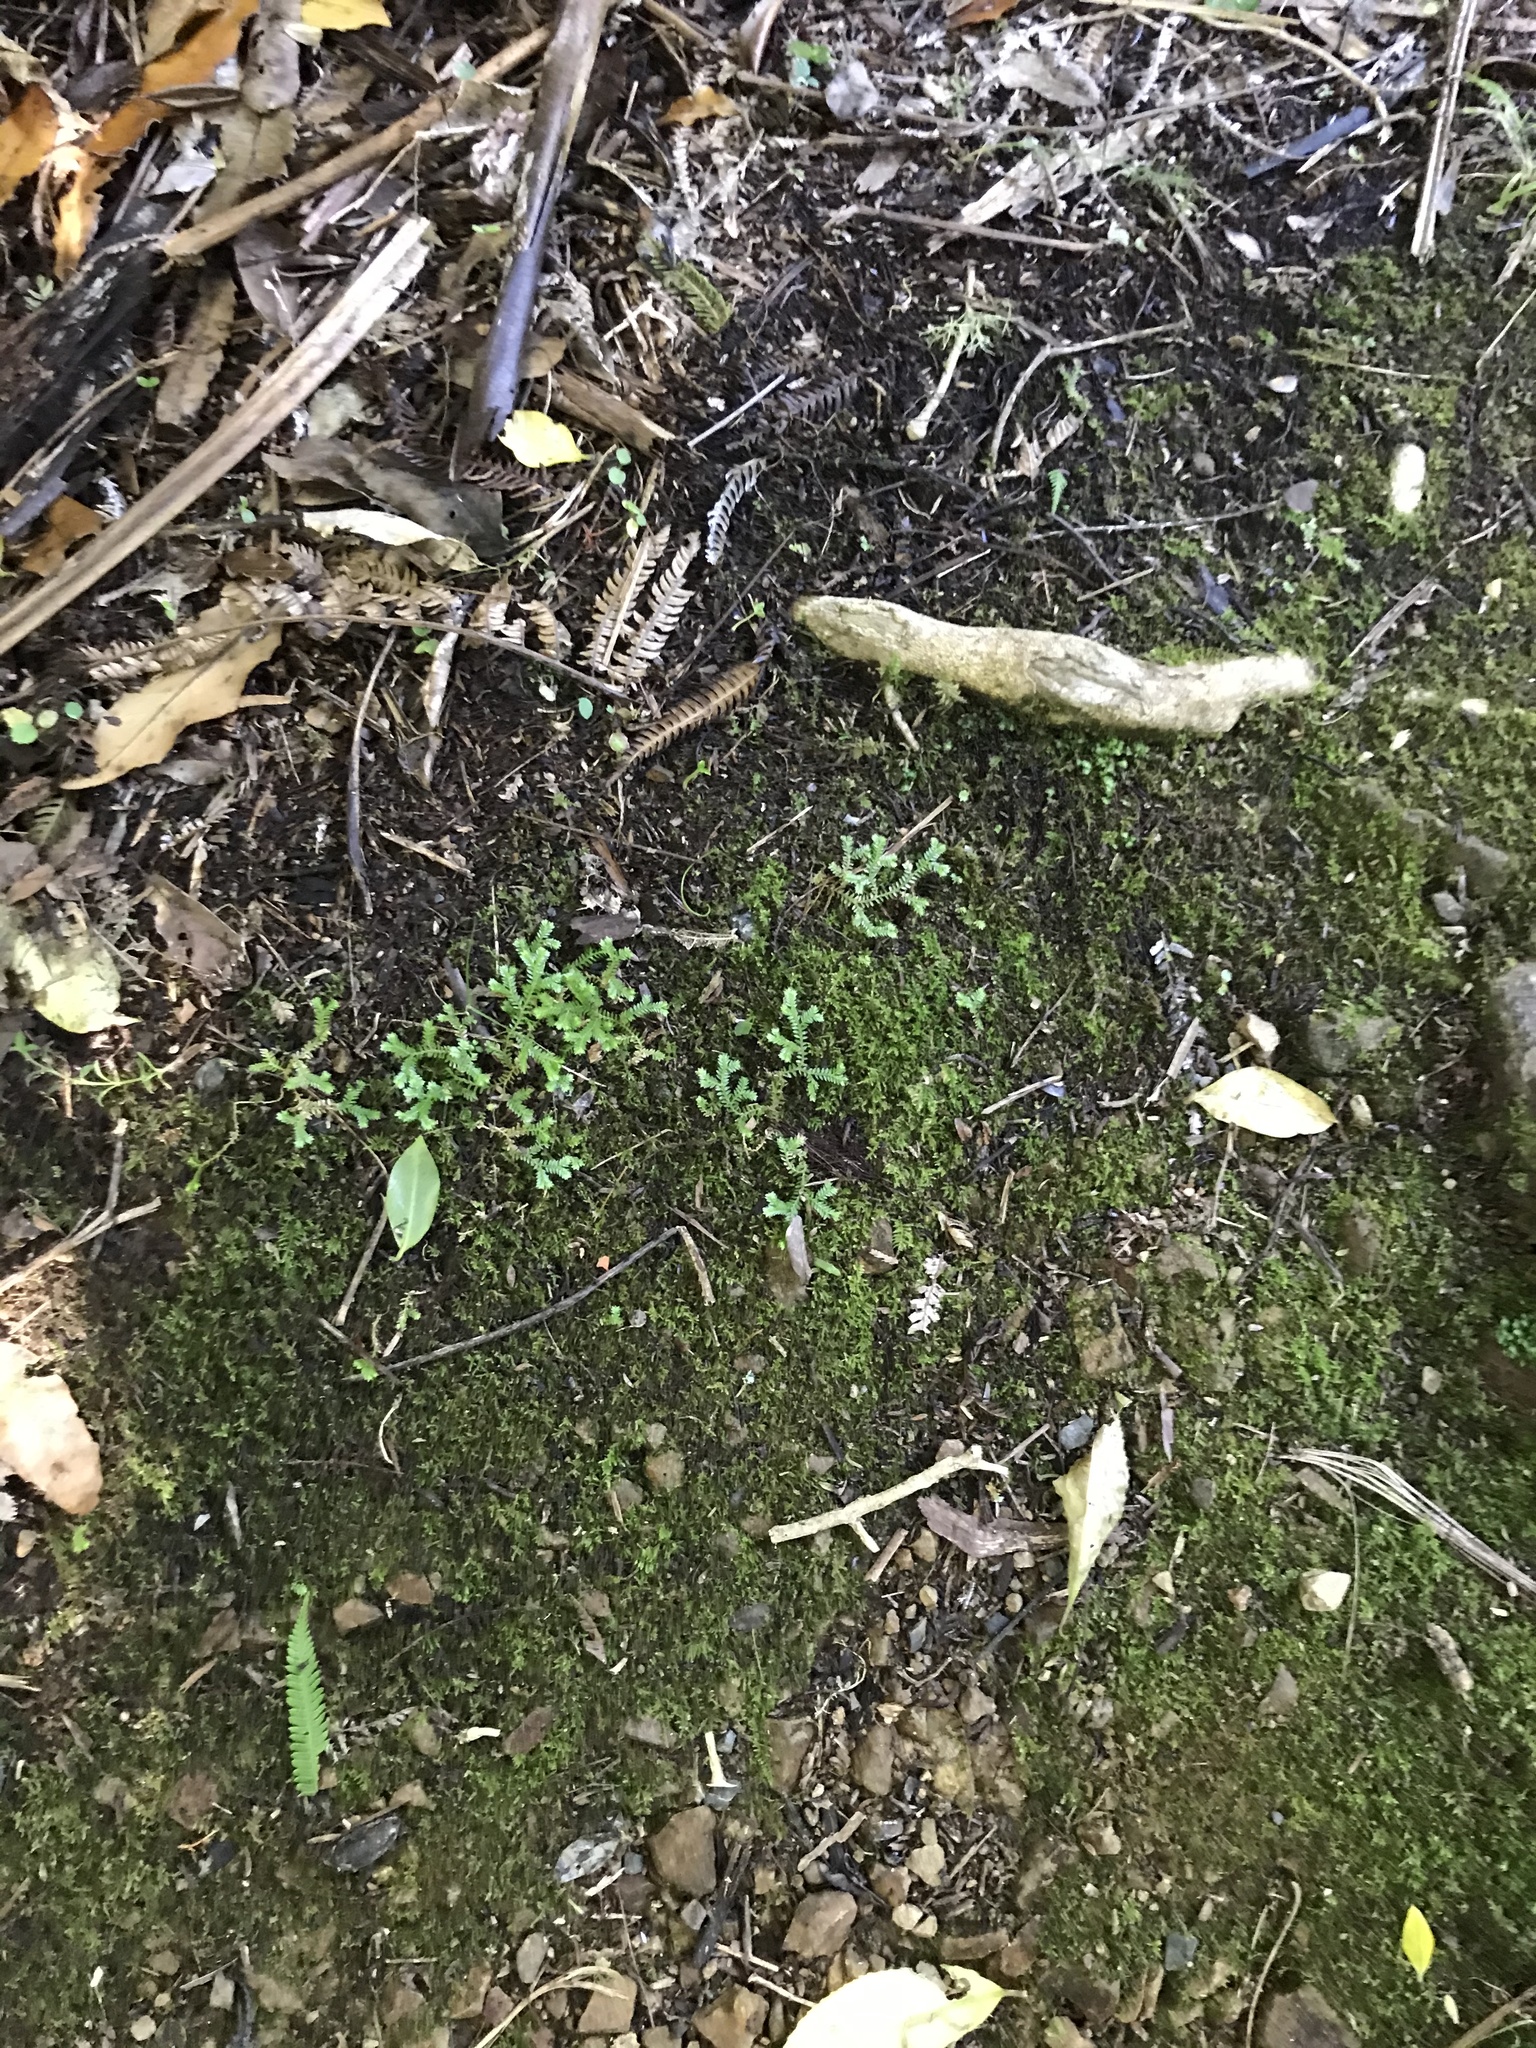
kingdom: Plantae
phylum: Tracheophyta
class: Lycopodiopsida
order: Selaginellales
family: Selaginellaceae
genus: Selaginella
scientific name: Selaginella kraussiana
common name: Krauss' spikemoss
